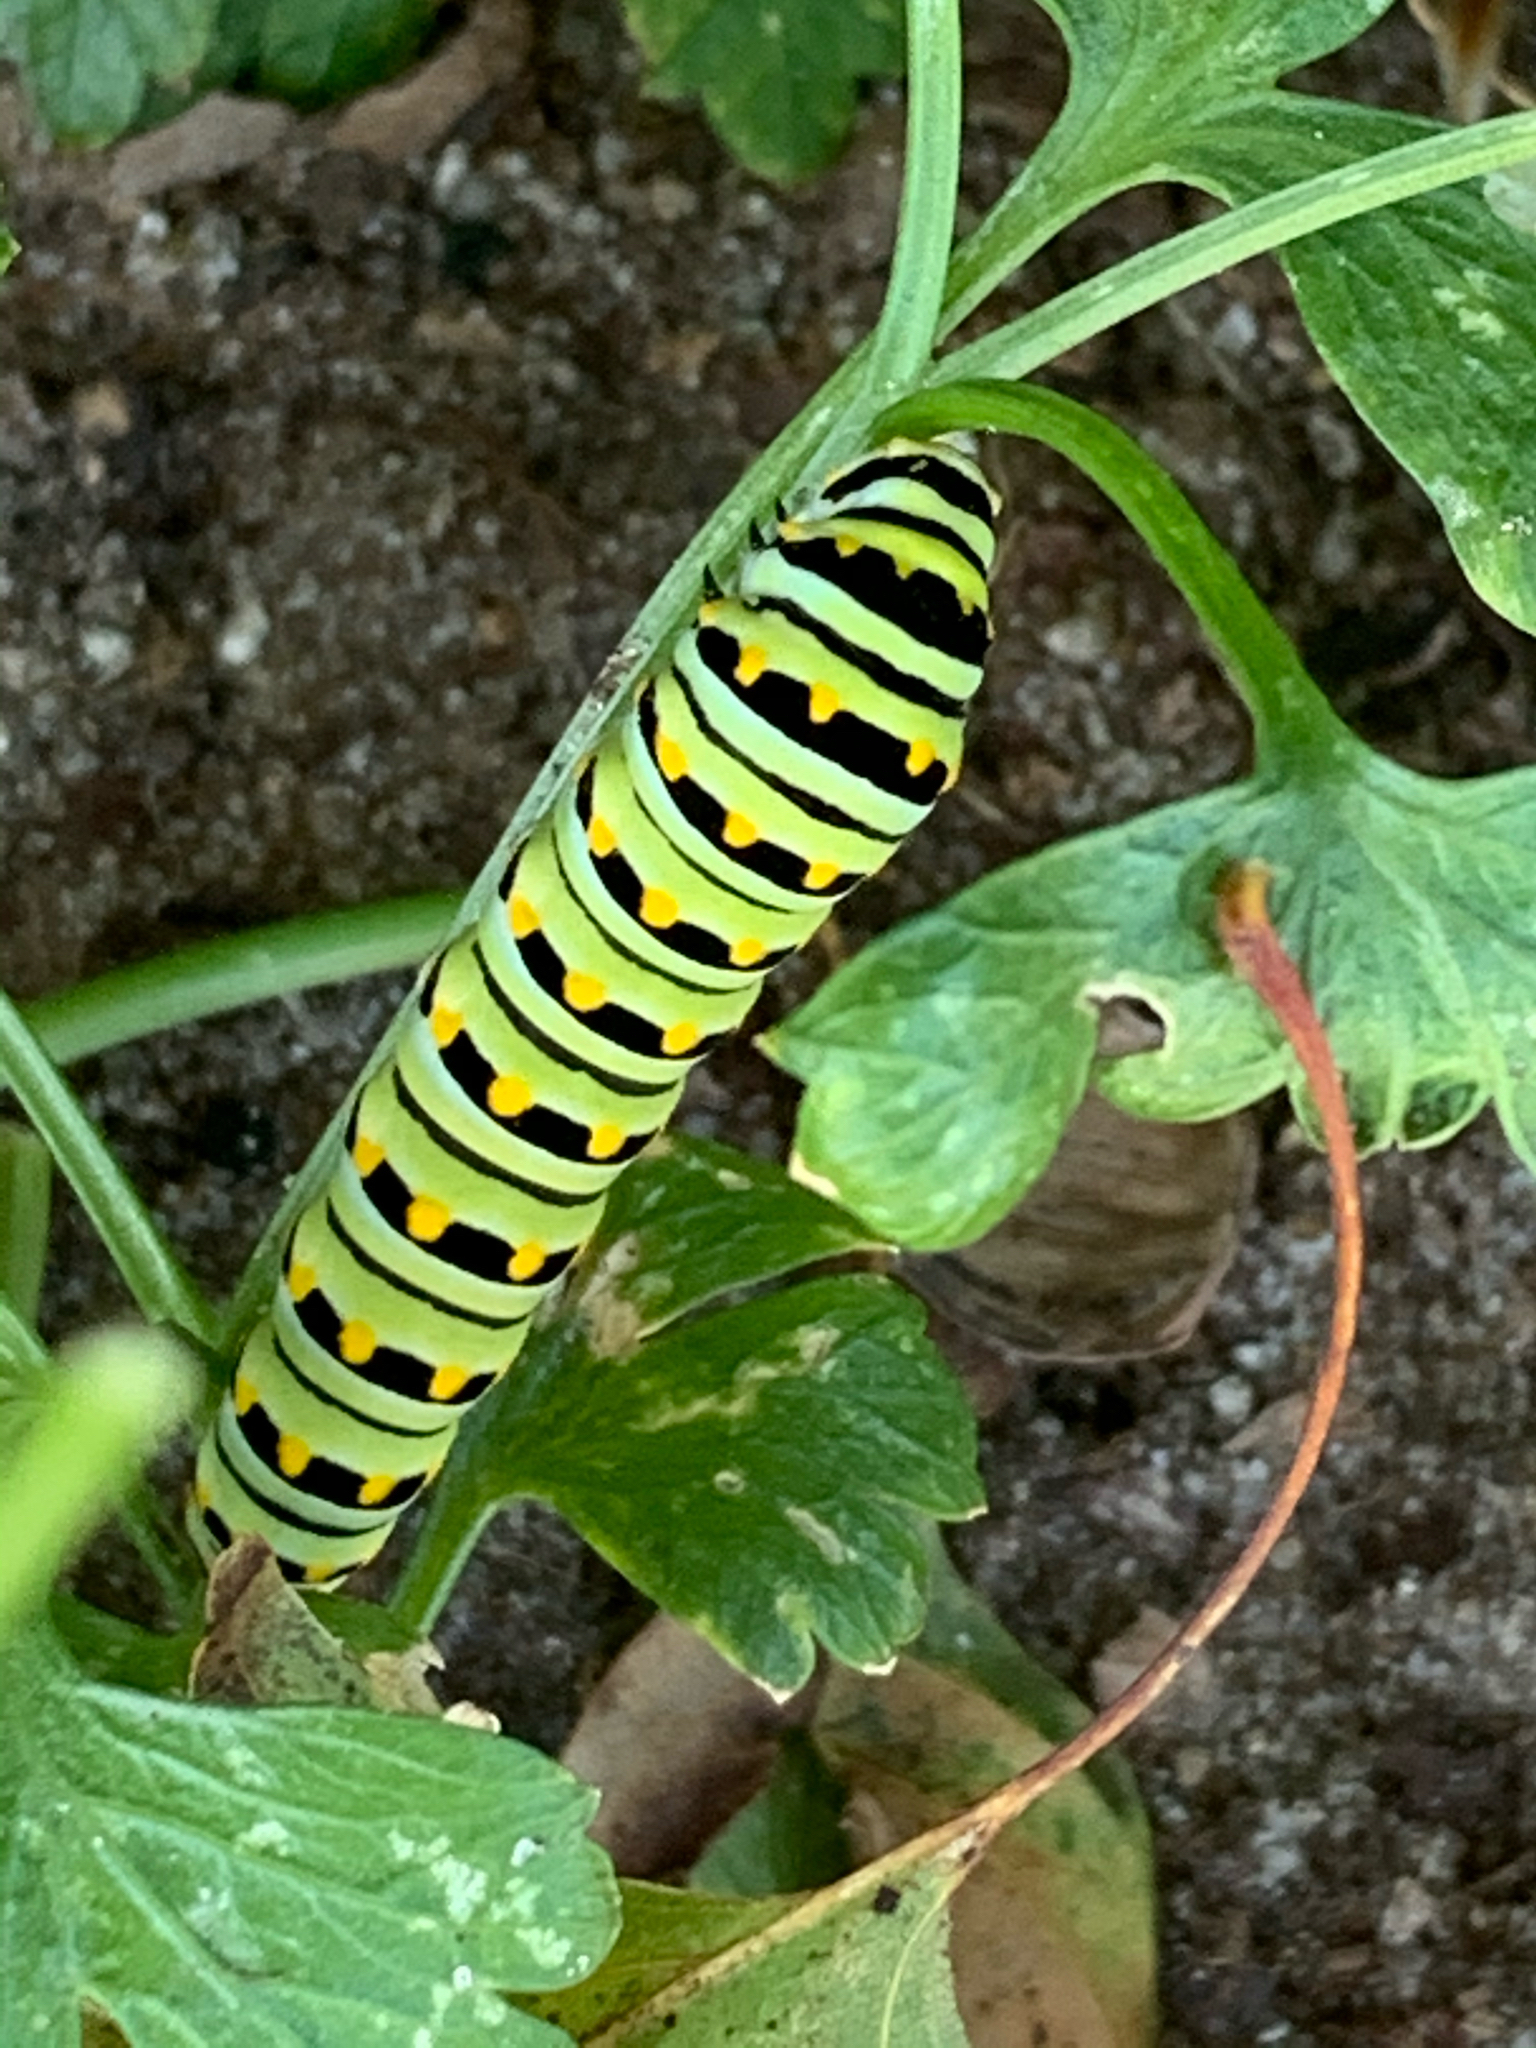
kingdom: Animalia
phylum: Arthropoda
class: Insecta
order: Lepidoptera
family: Papilionidae
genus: Papilio
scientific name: Papilio polyxenes
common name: Black swallowtail
